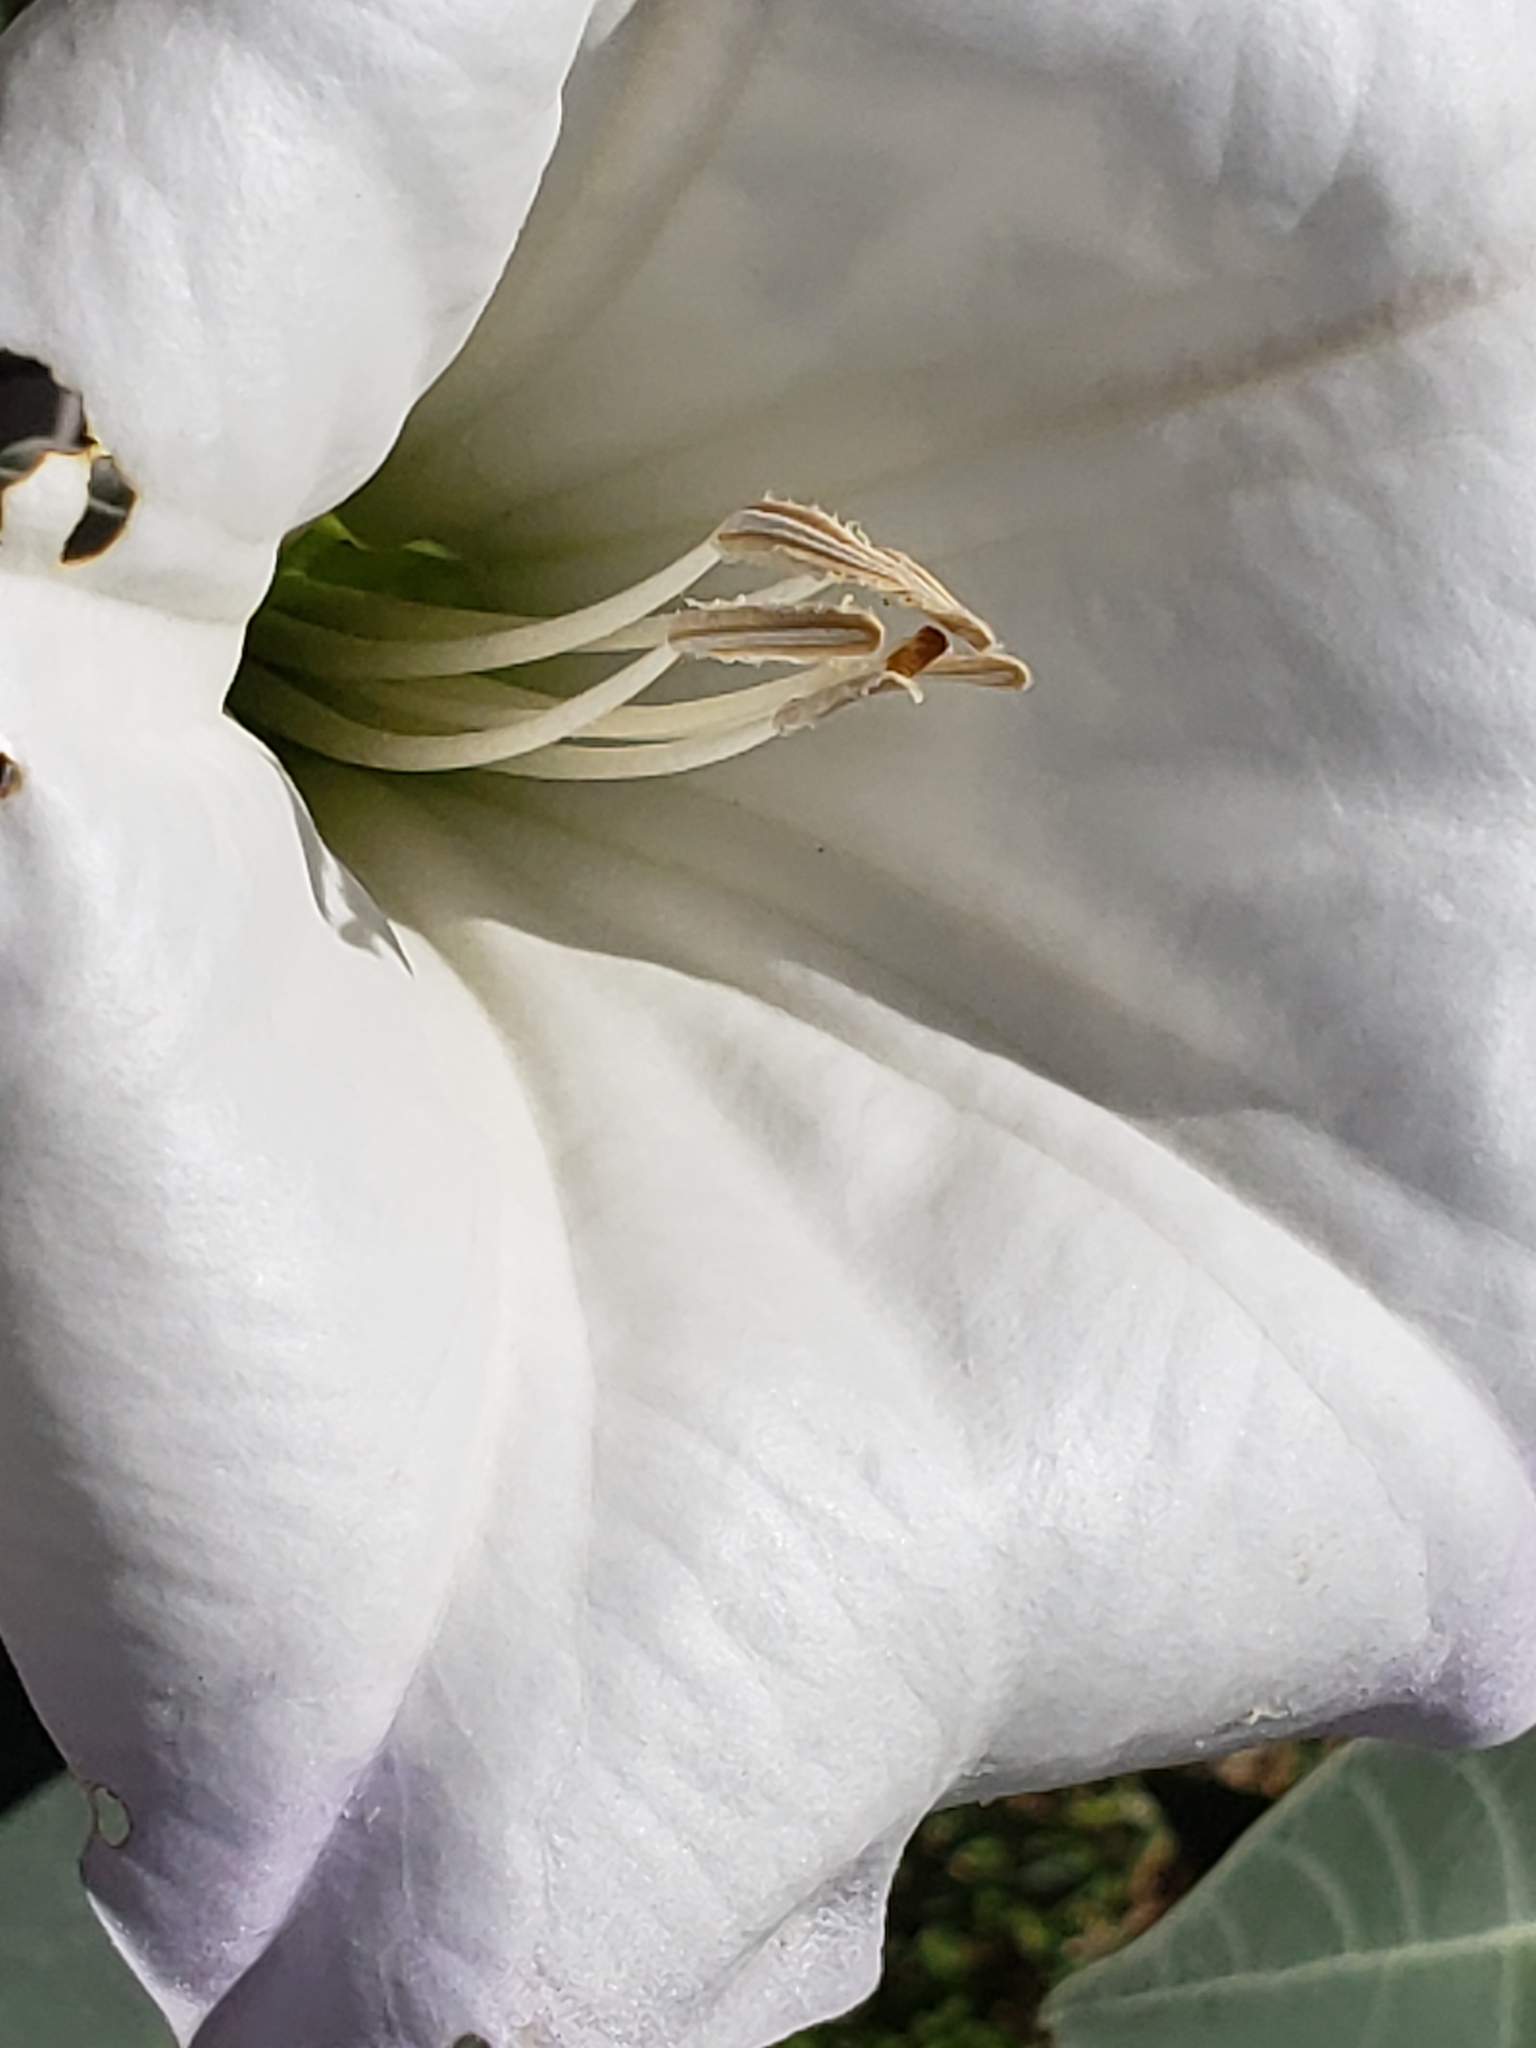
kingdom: Plantae
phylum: Tracheophyta
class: Magnoliopsida
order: Solanales
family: Solanaceae
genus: Datura
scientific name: Datura wrightii
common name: Sacred thorn-apple
